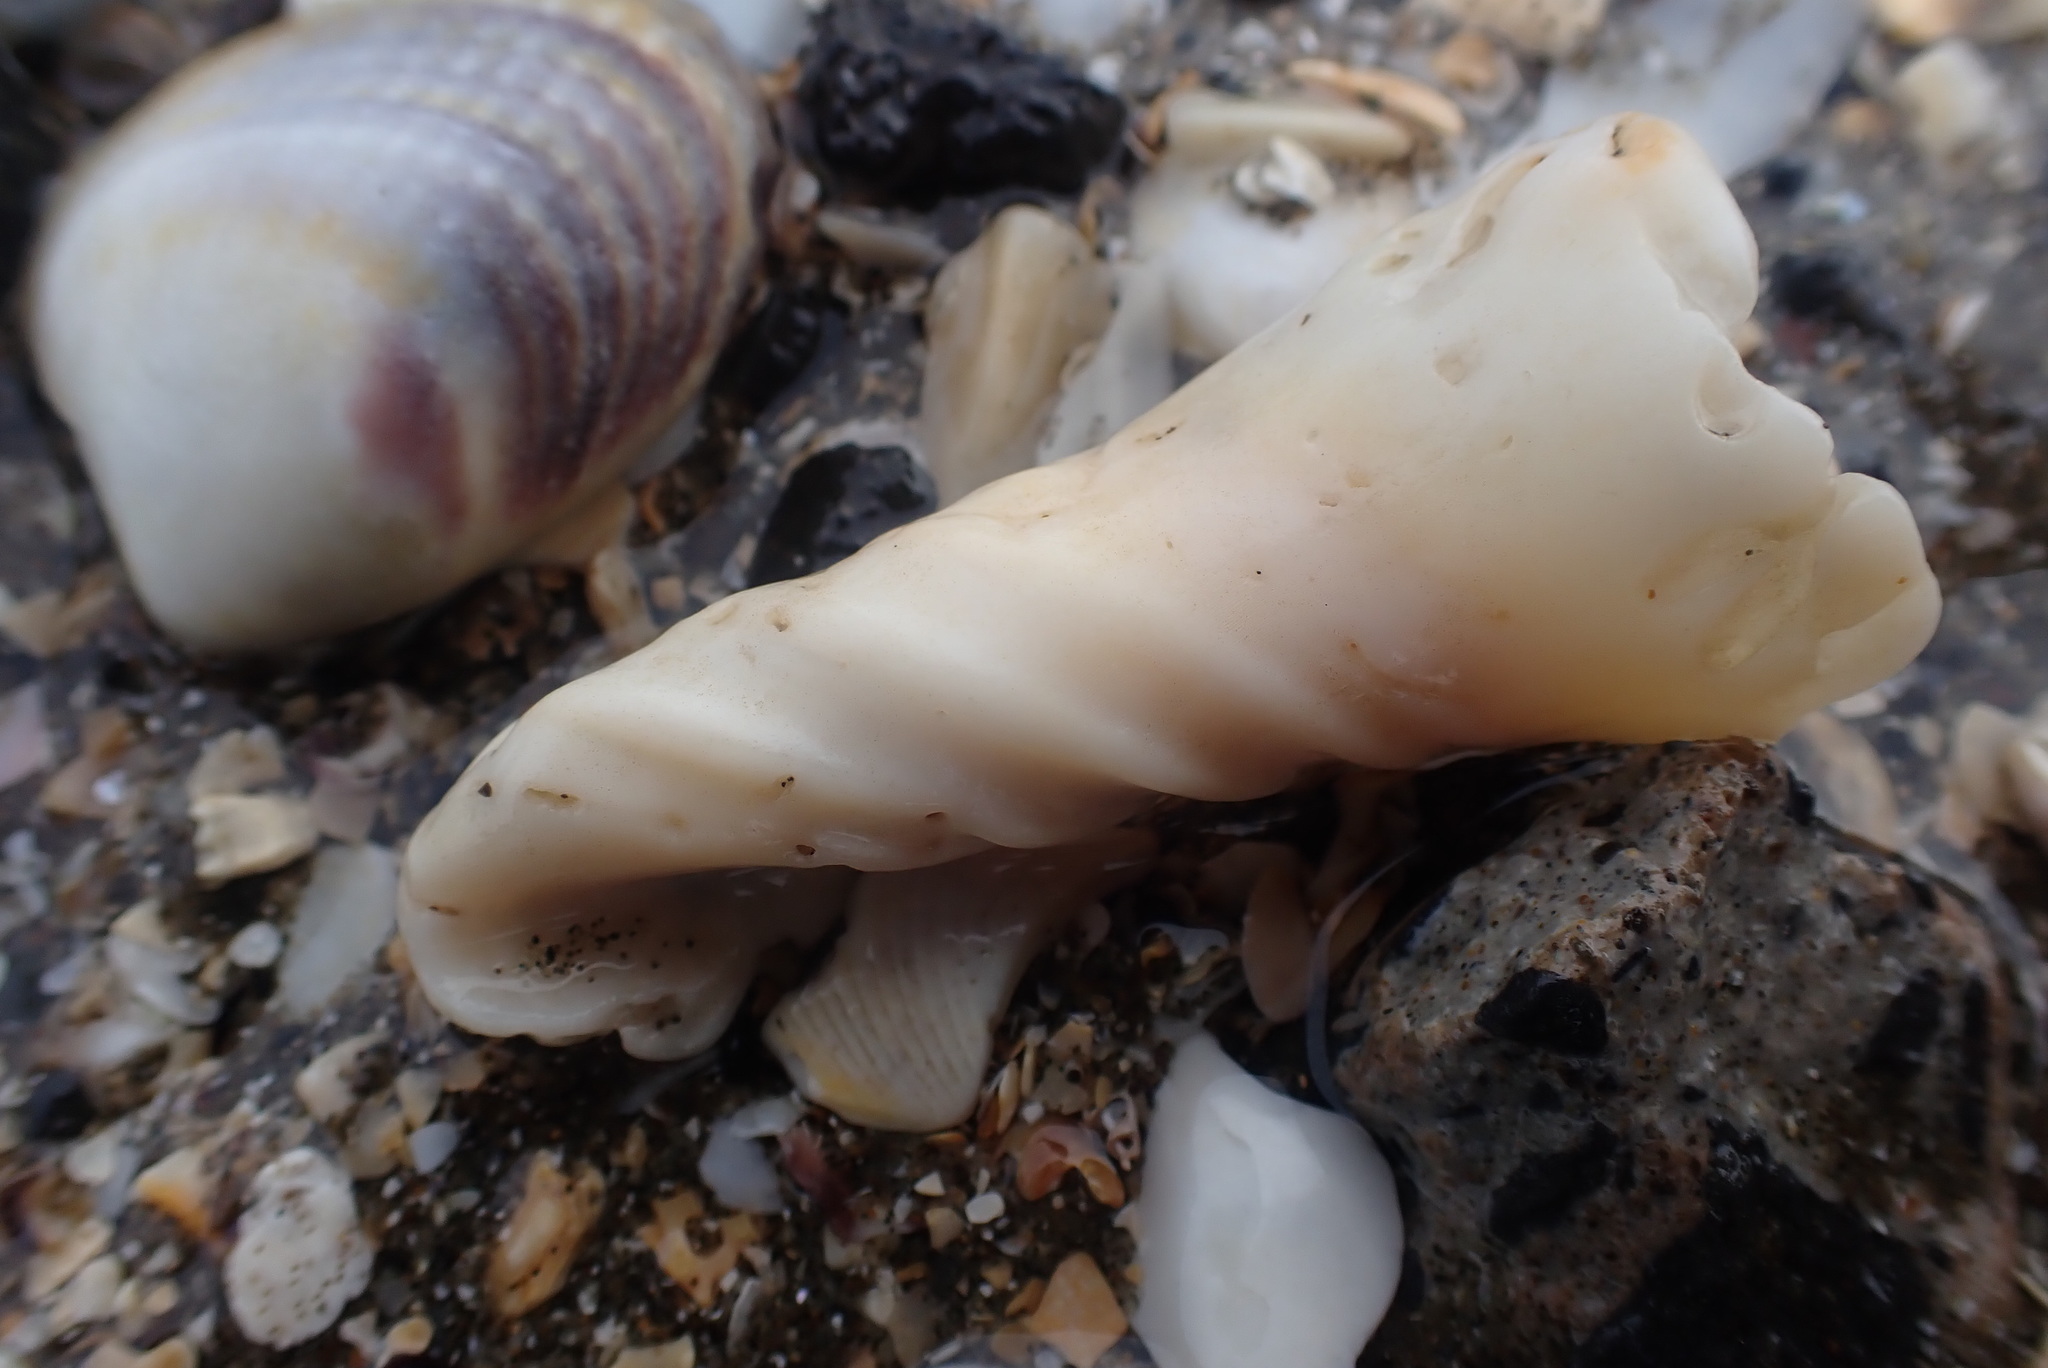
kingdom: Animalia
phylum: Mollusca
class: Gastropoda
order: Neogastropoda
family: Volutidae
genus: Alcithoe
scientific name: Alcithoe arabica
